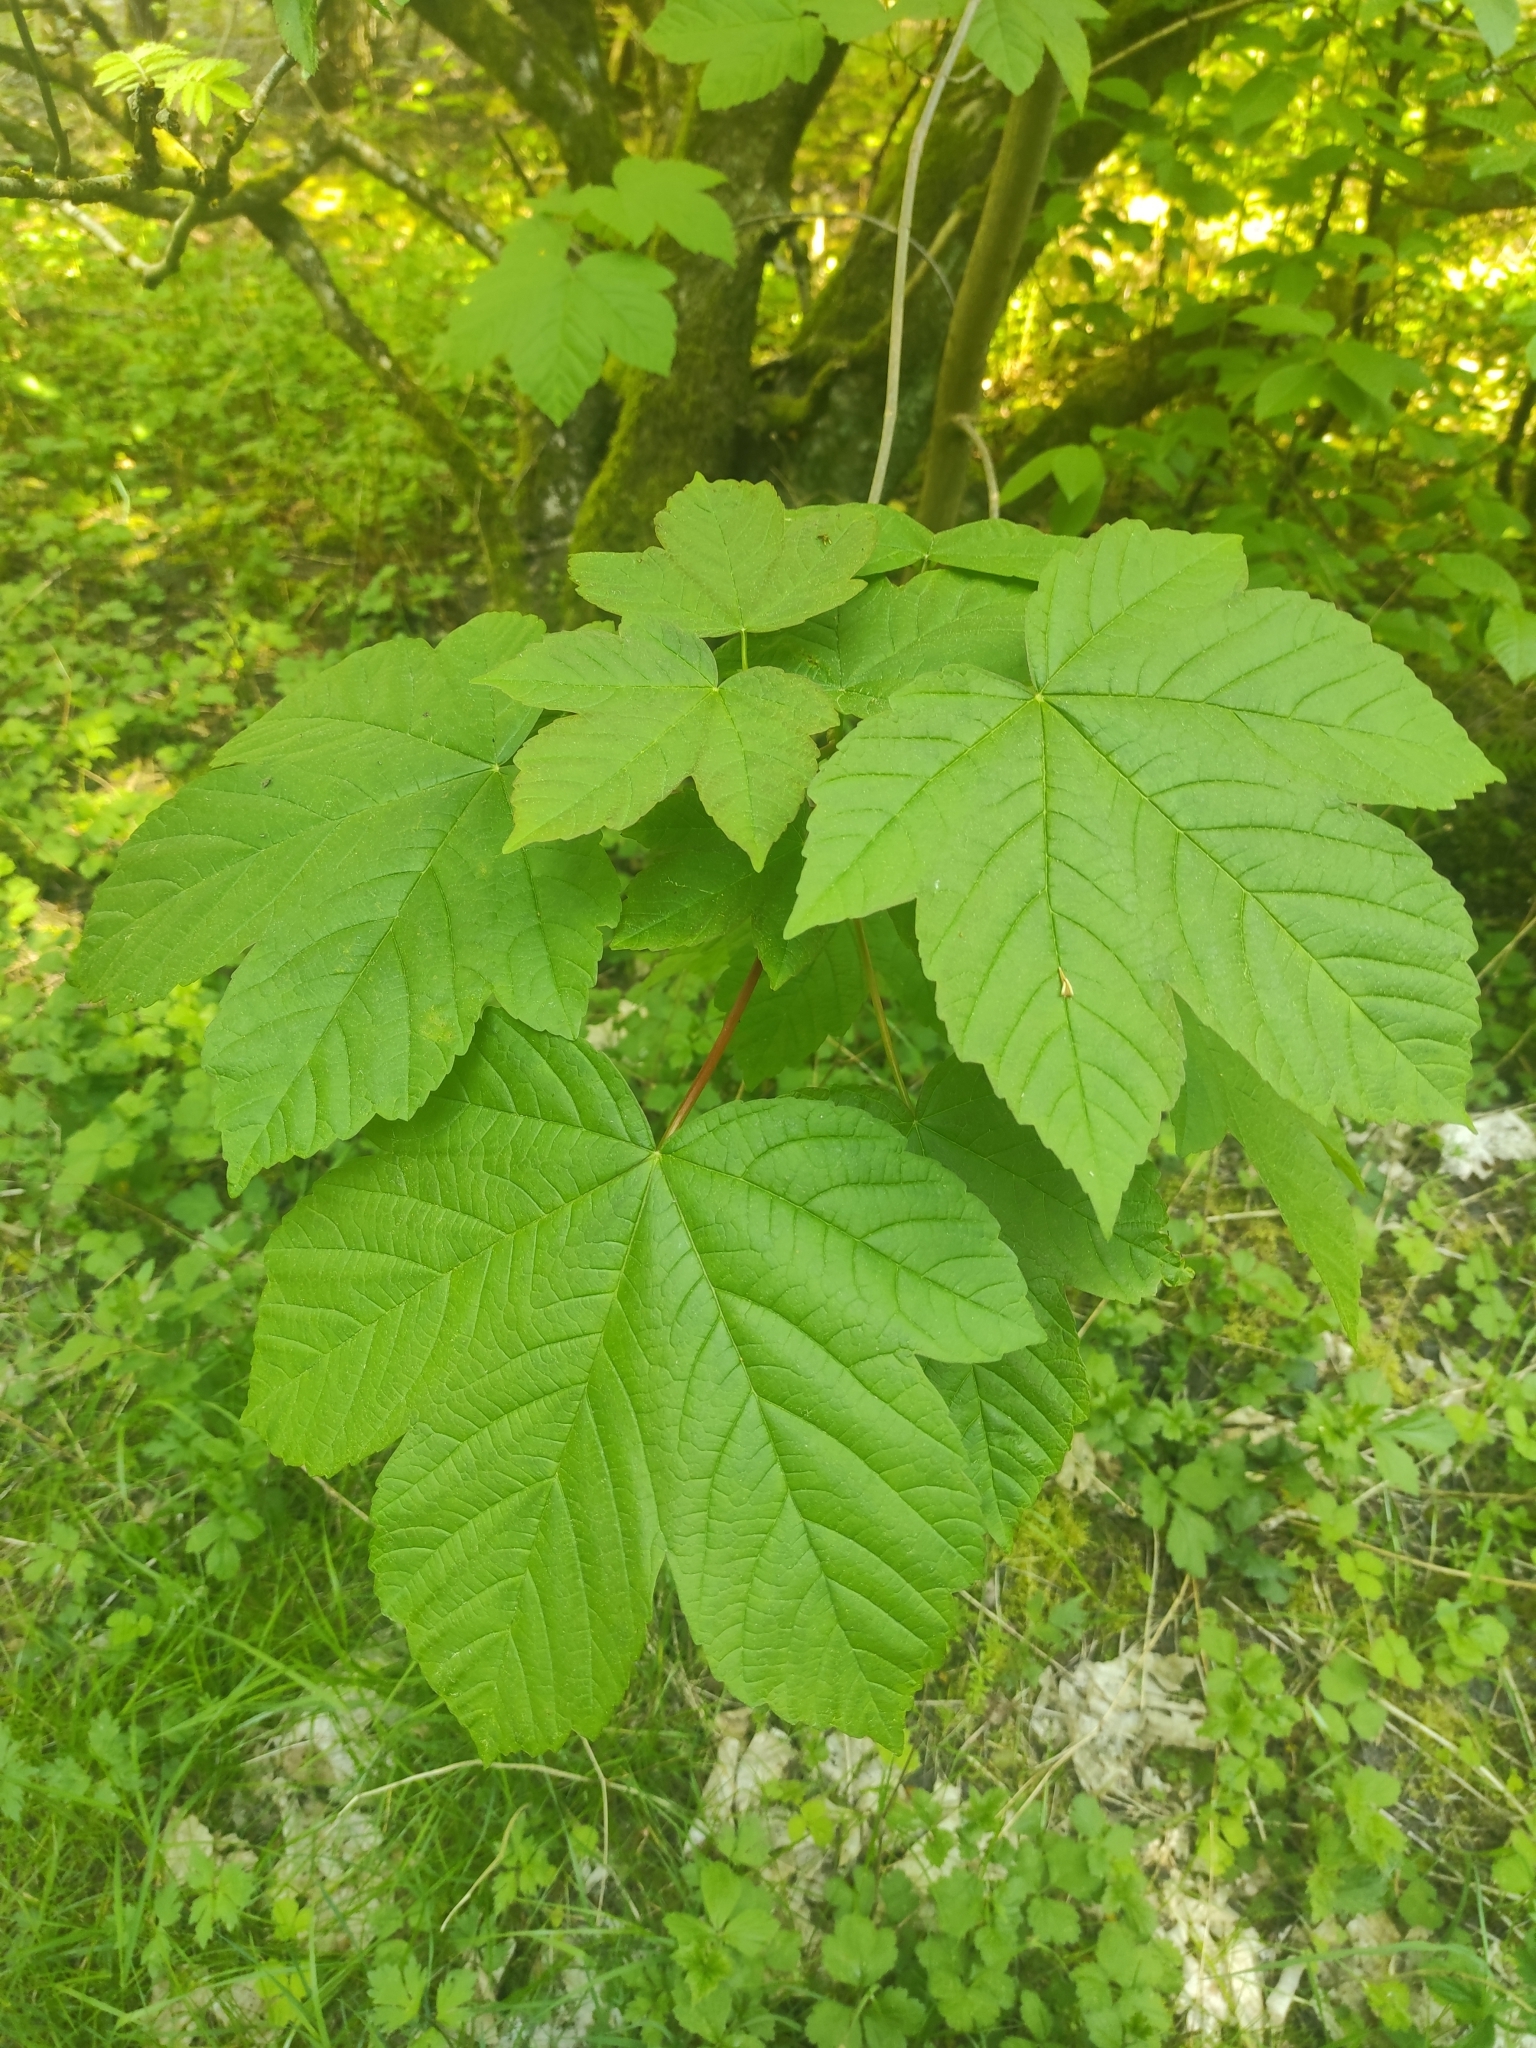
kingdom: Plantae
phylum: Tracheophyta
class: Magnoliopsida
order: Sapindales
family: Sapindaceae
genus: Acer
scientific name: Acer pseudoplatanus
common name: Sycamore
